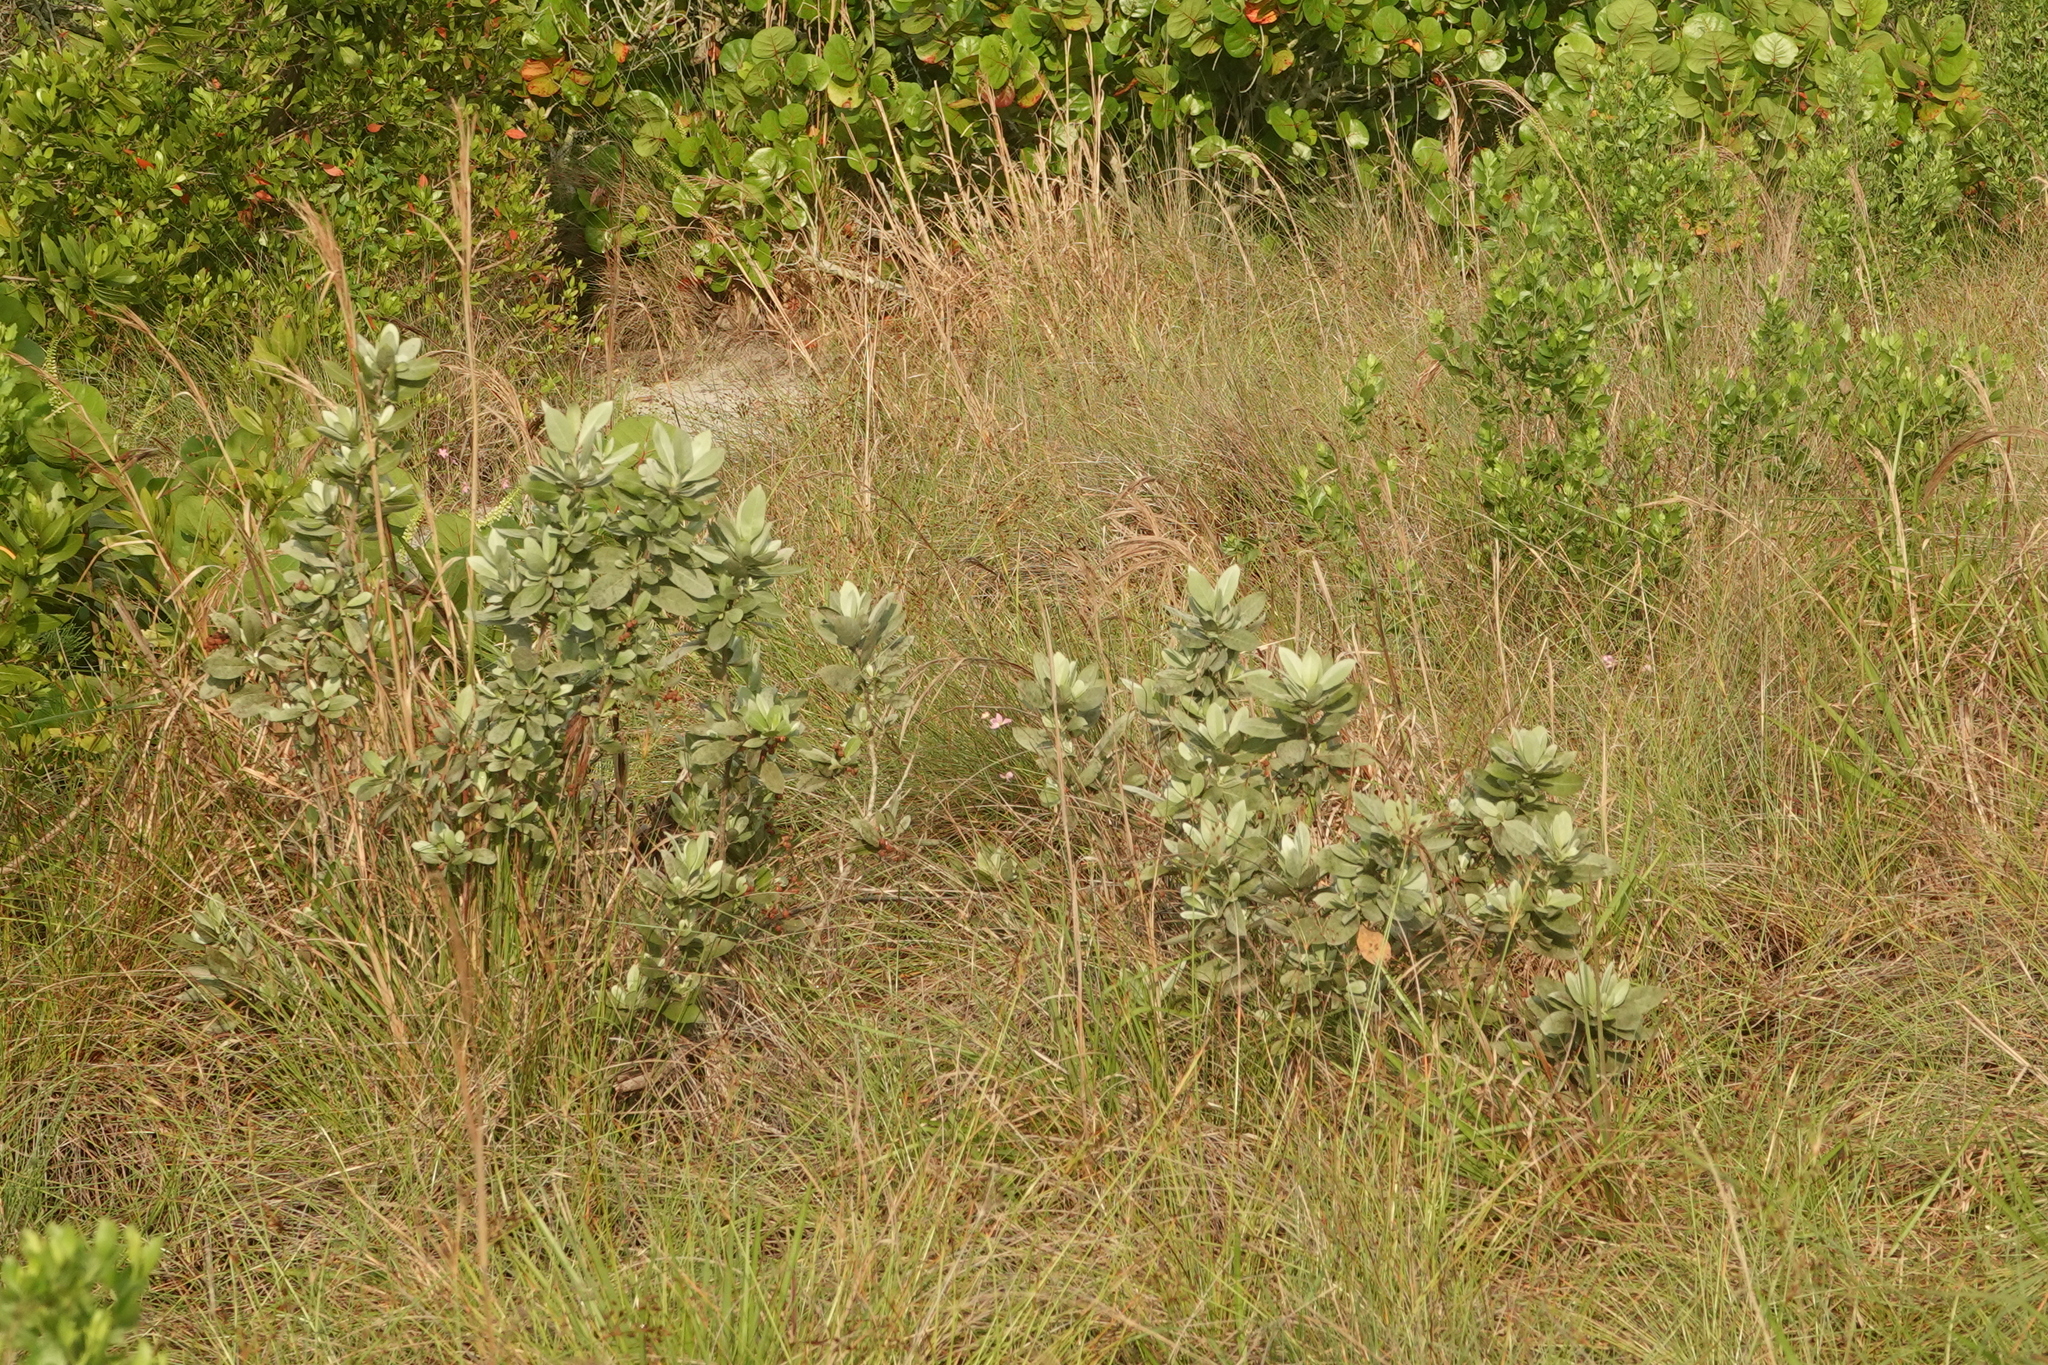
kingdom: Plantae
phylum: Tracheophyta
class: Magnoliopsida
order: Myrtales
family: Combretaceae
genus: Conocarpus
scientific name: Conocarpus erectus
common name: Button mangrove
